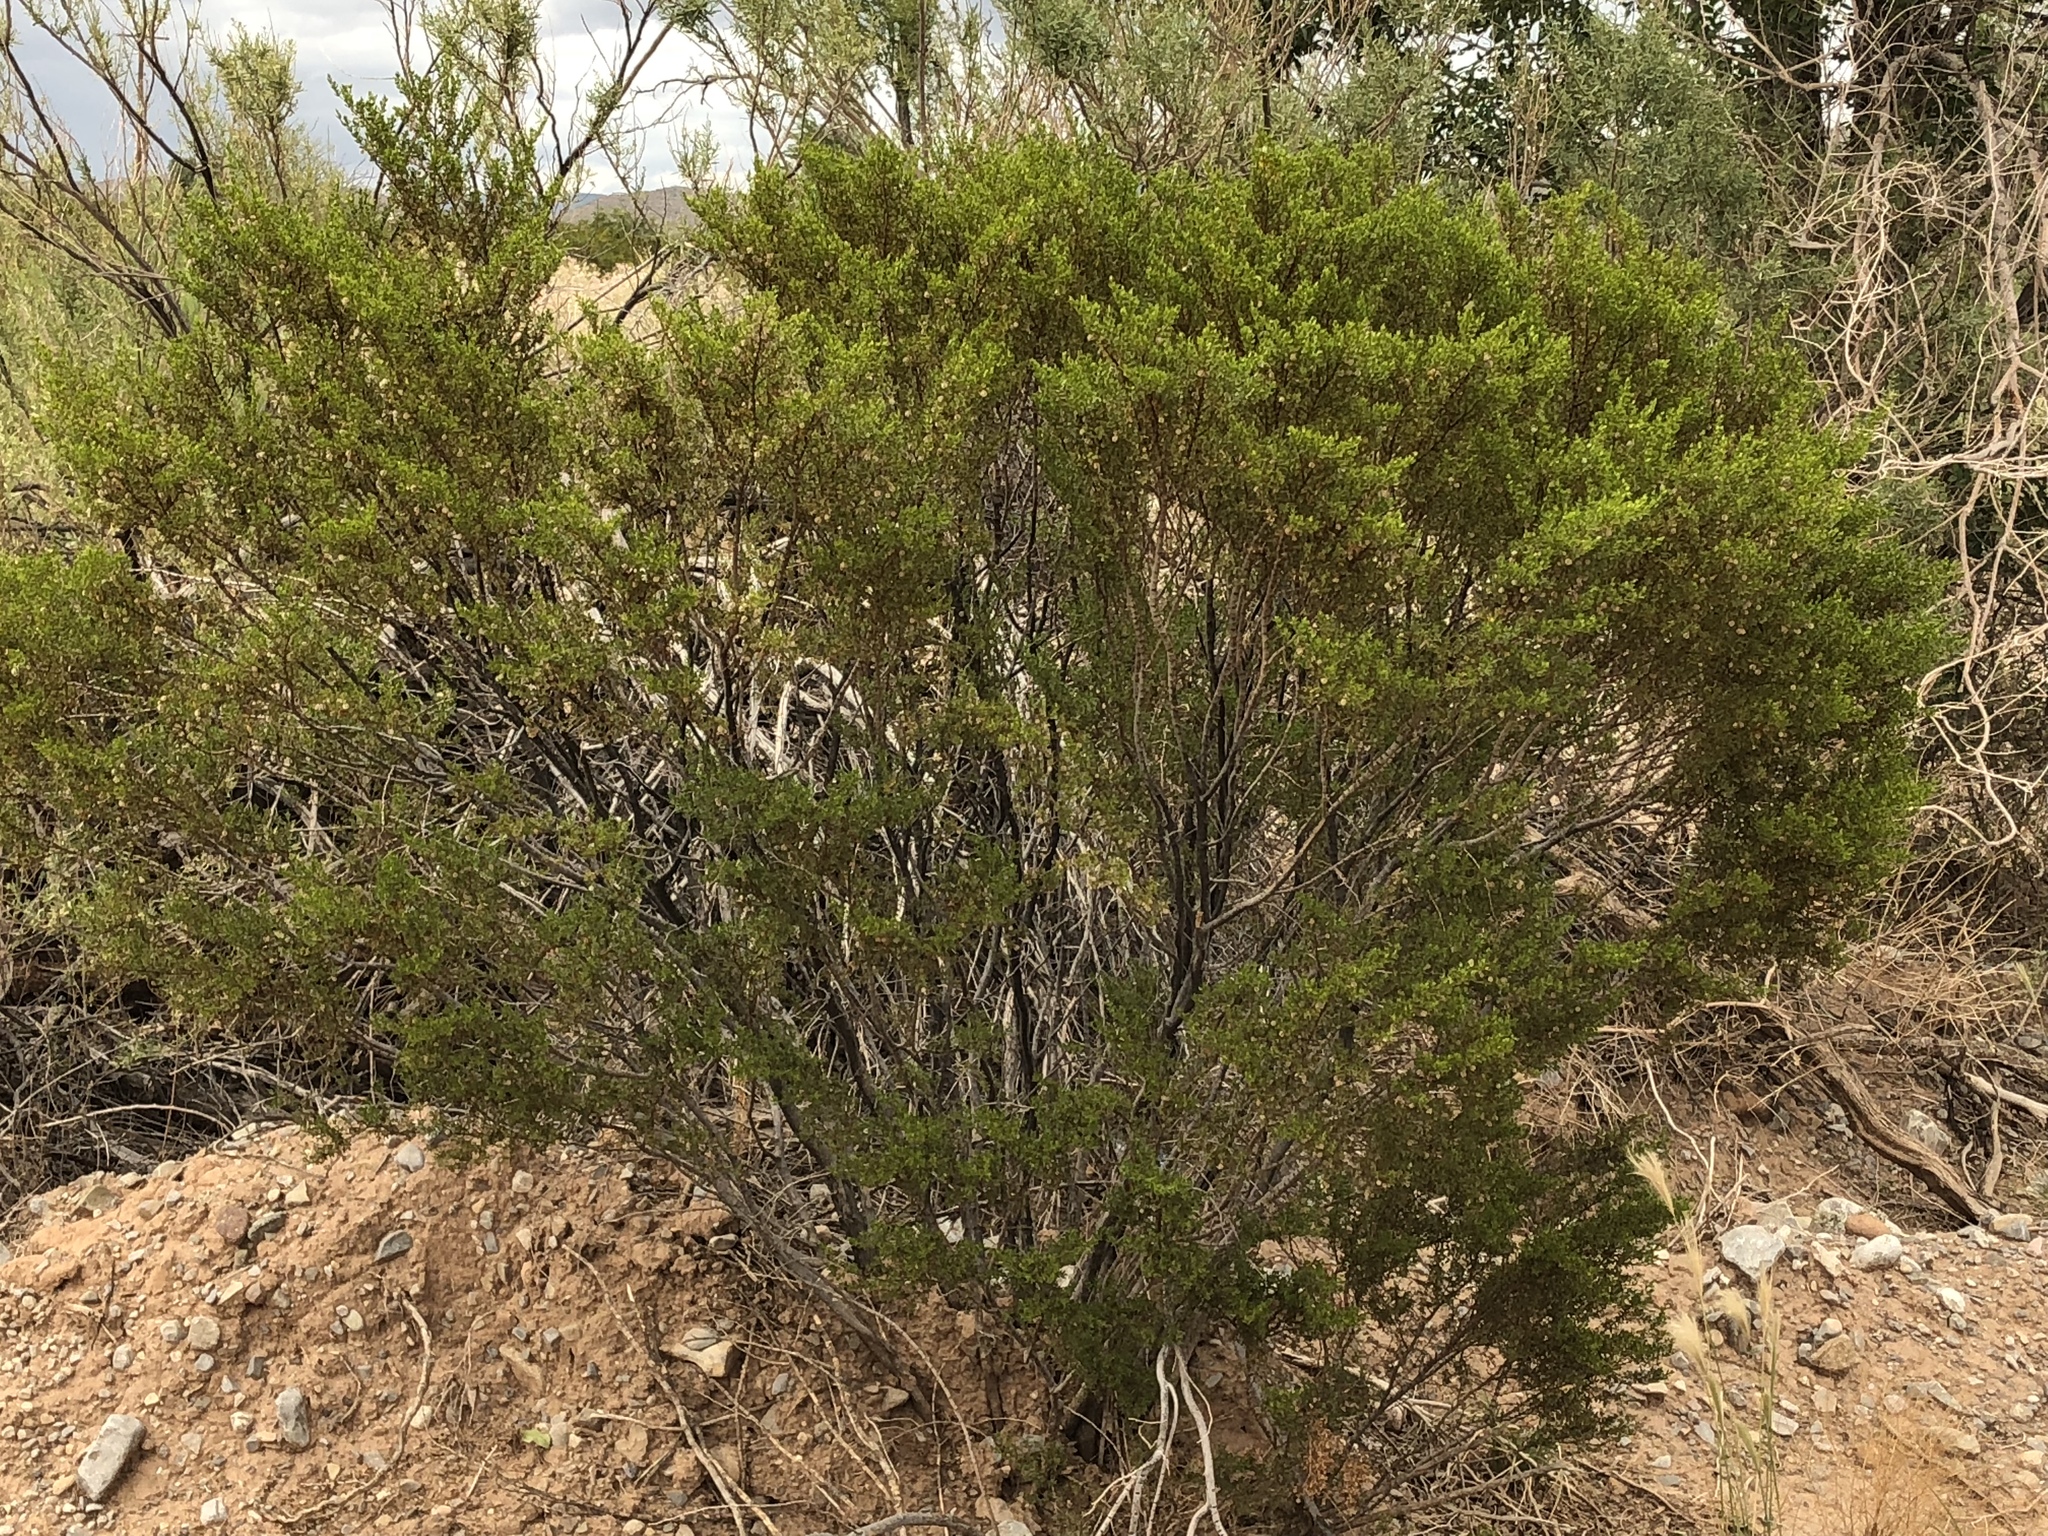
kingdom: Plantae
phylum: Tracheophyta
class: Magnoliopsida
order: Zygophyllales
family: Zygophyllaceae
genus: Larrea
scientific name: Larrea tridentata
